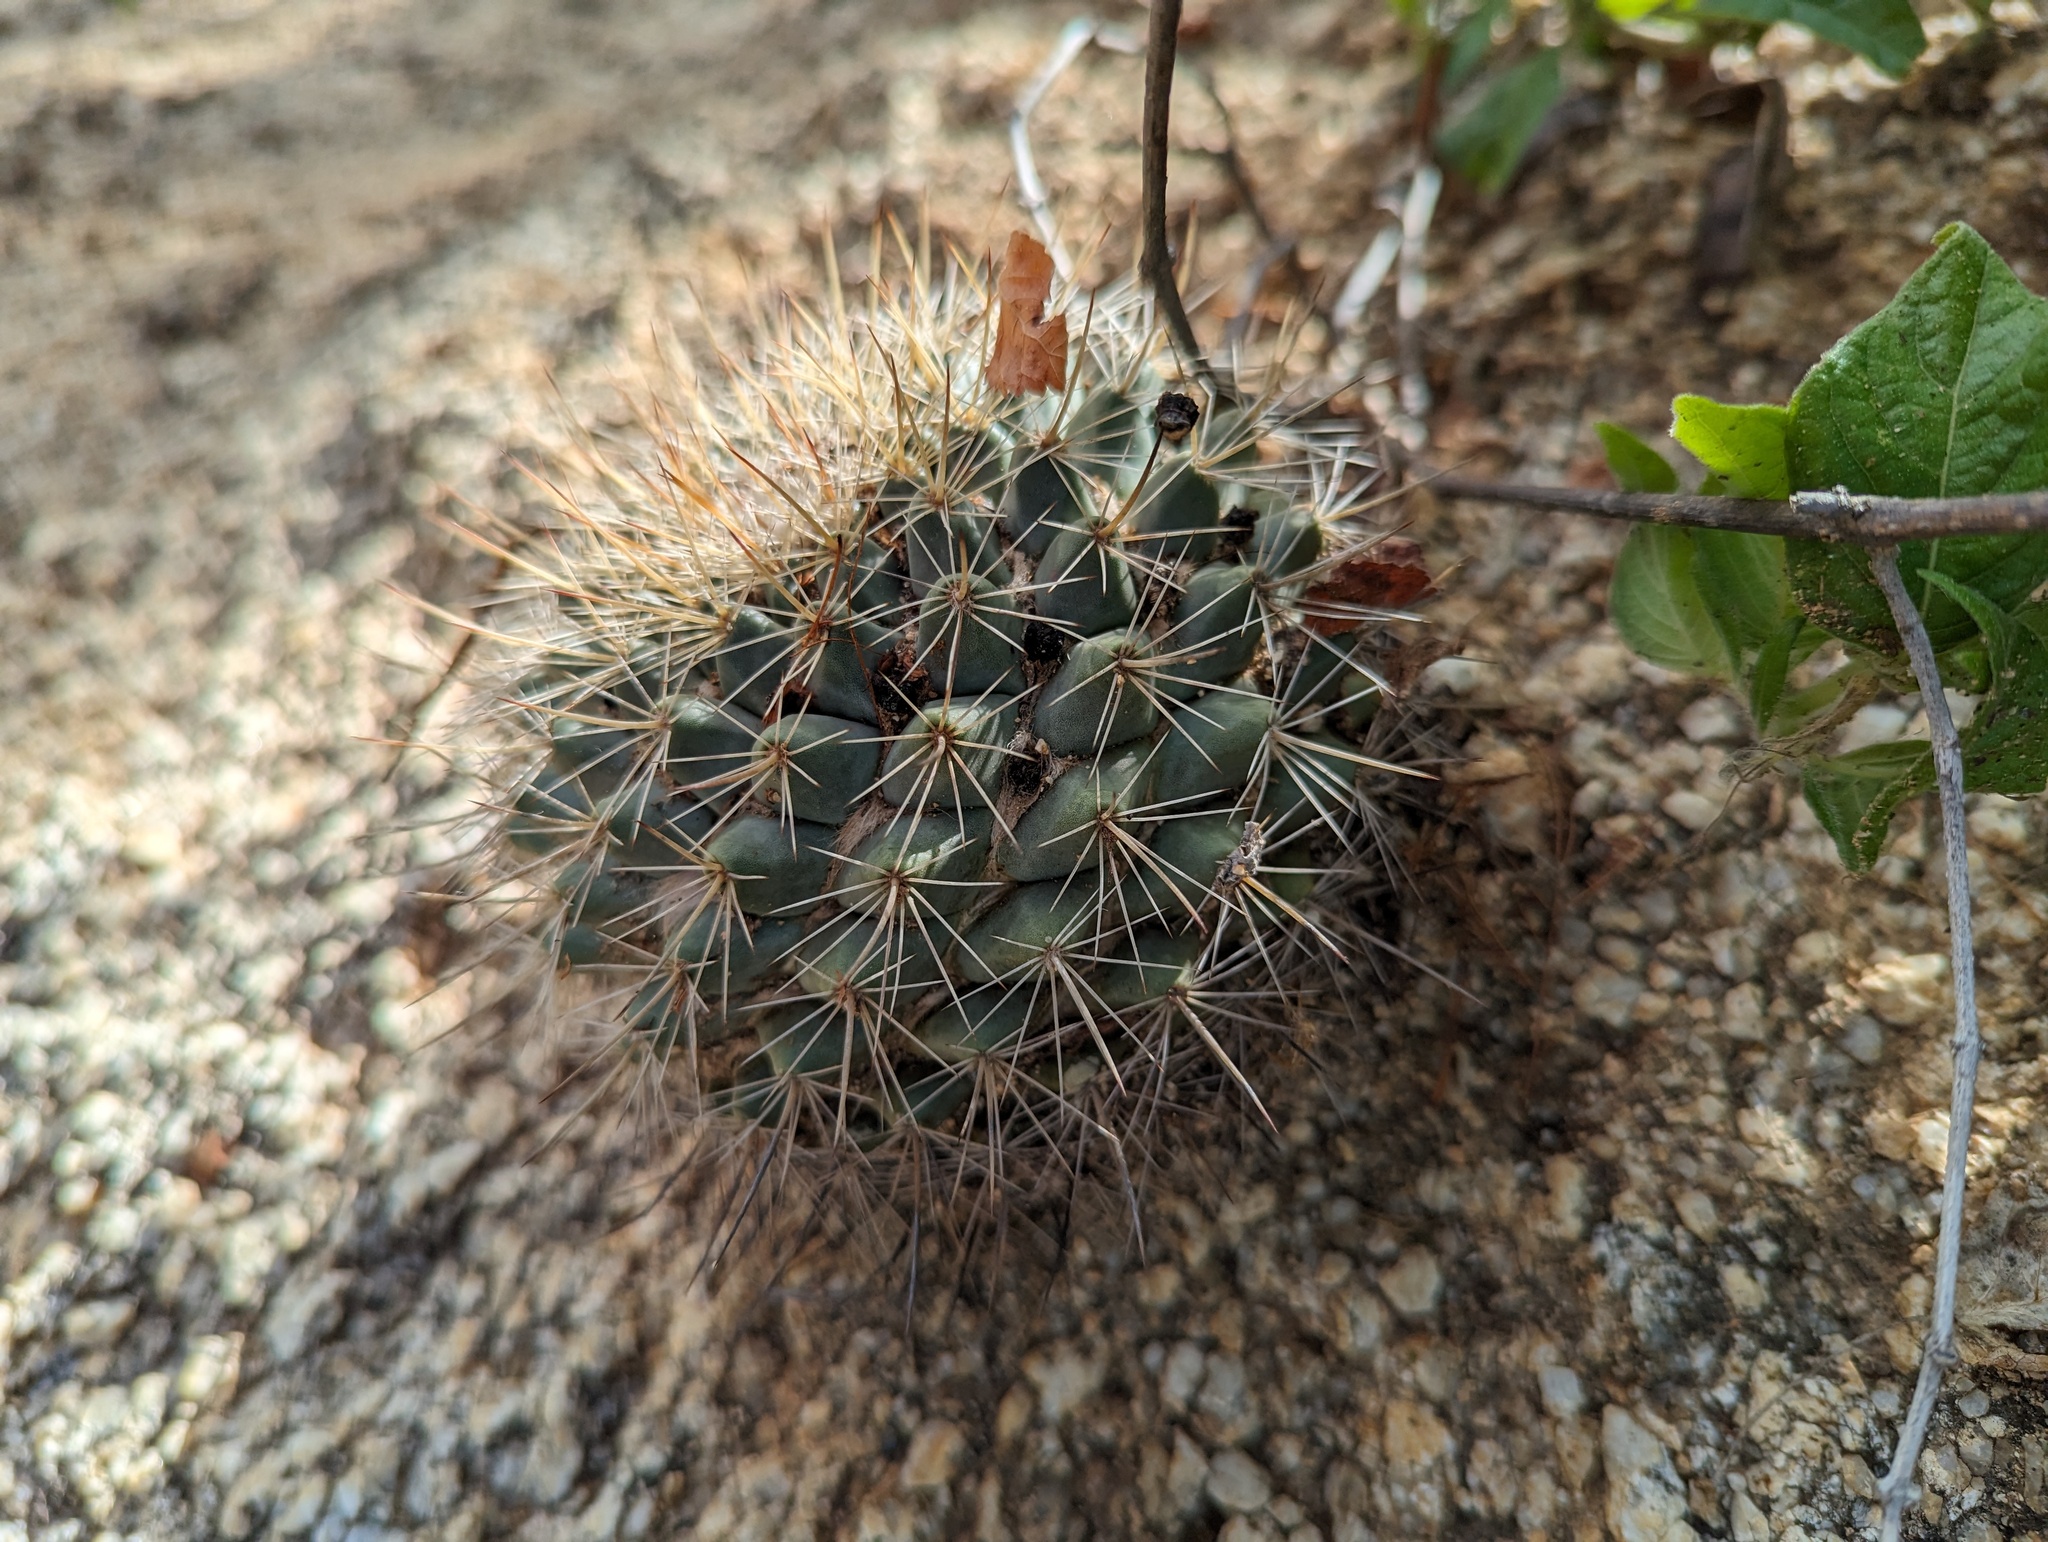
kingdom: Plantae
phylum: Tracheophyta
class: Magnoliopsida
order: Caryophyllales
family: Cactaceae
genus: Mammillaria
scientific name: Mammillaria petrophila
